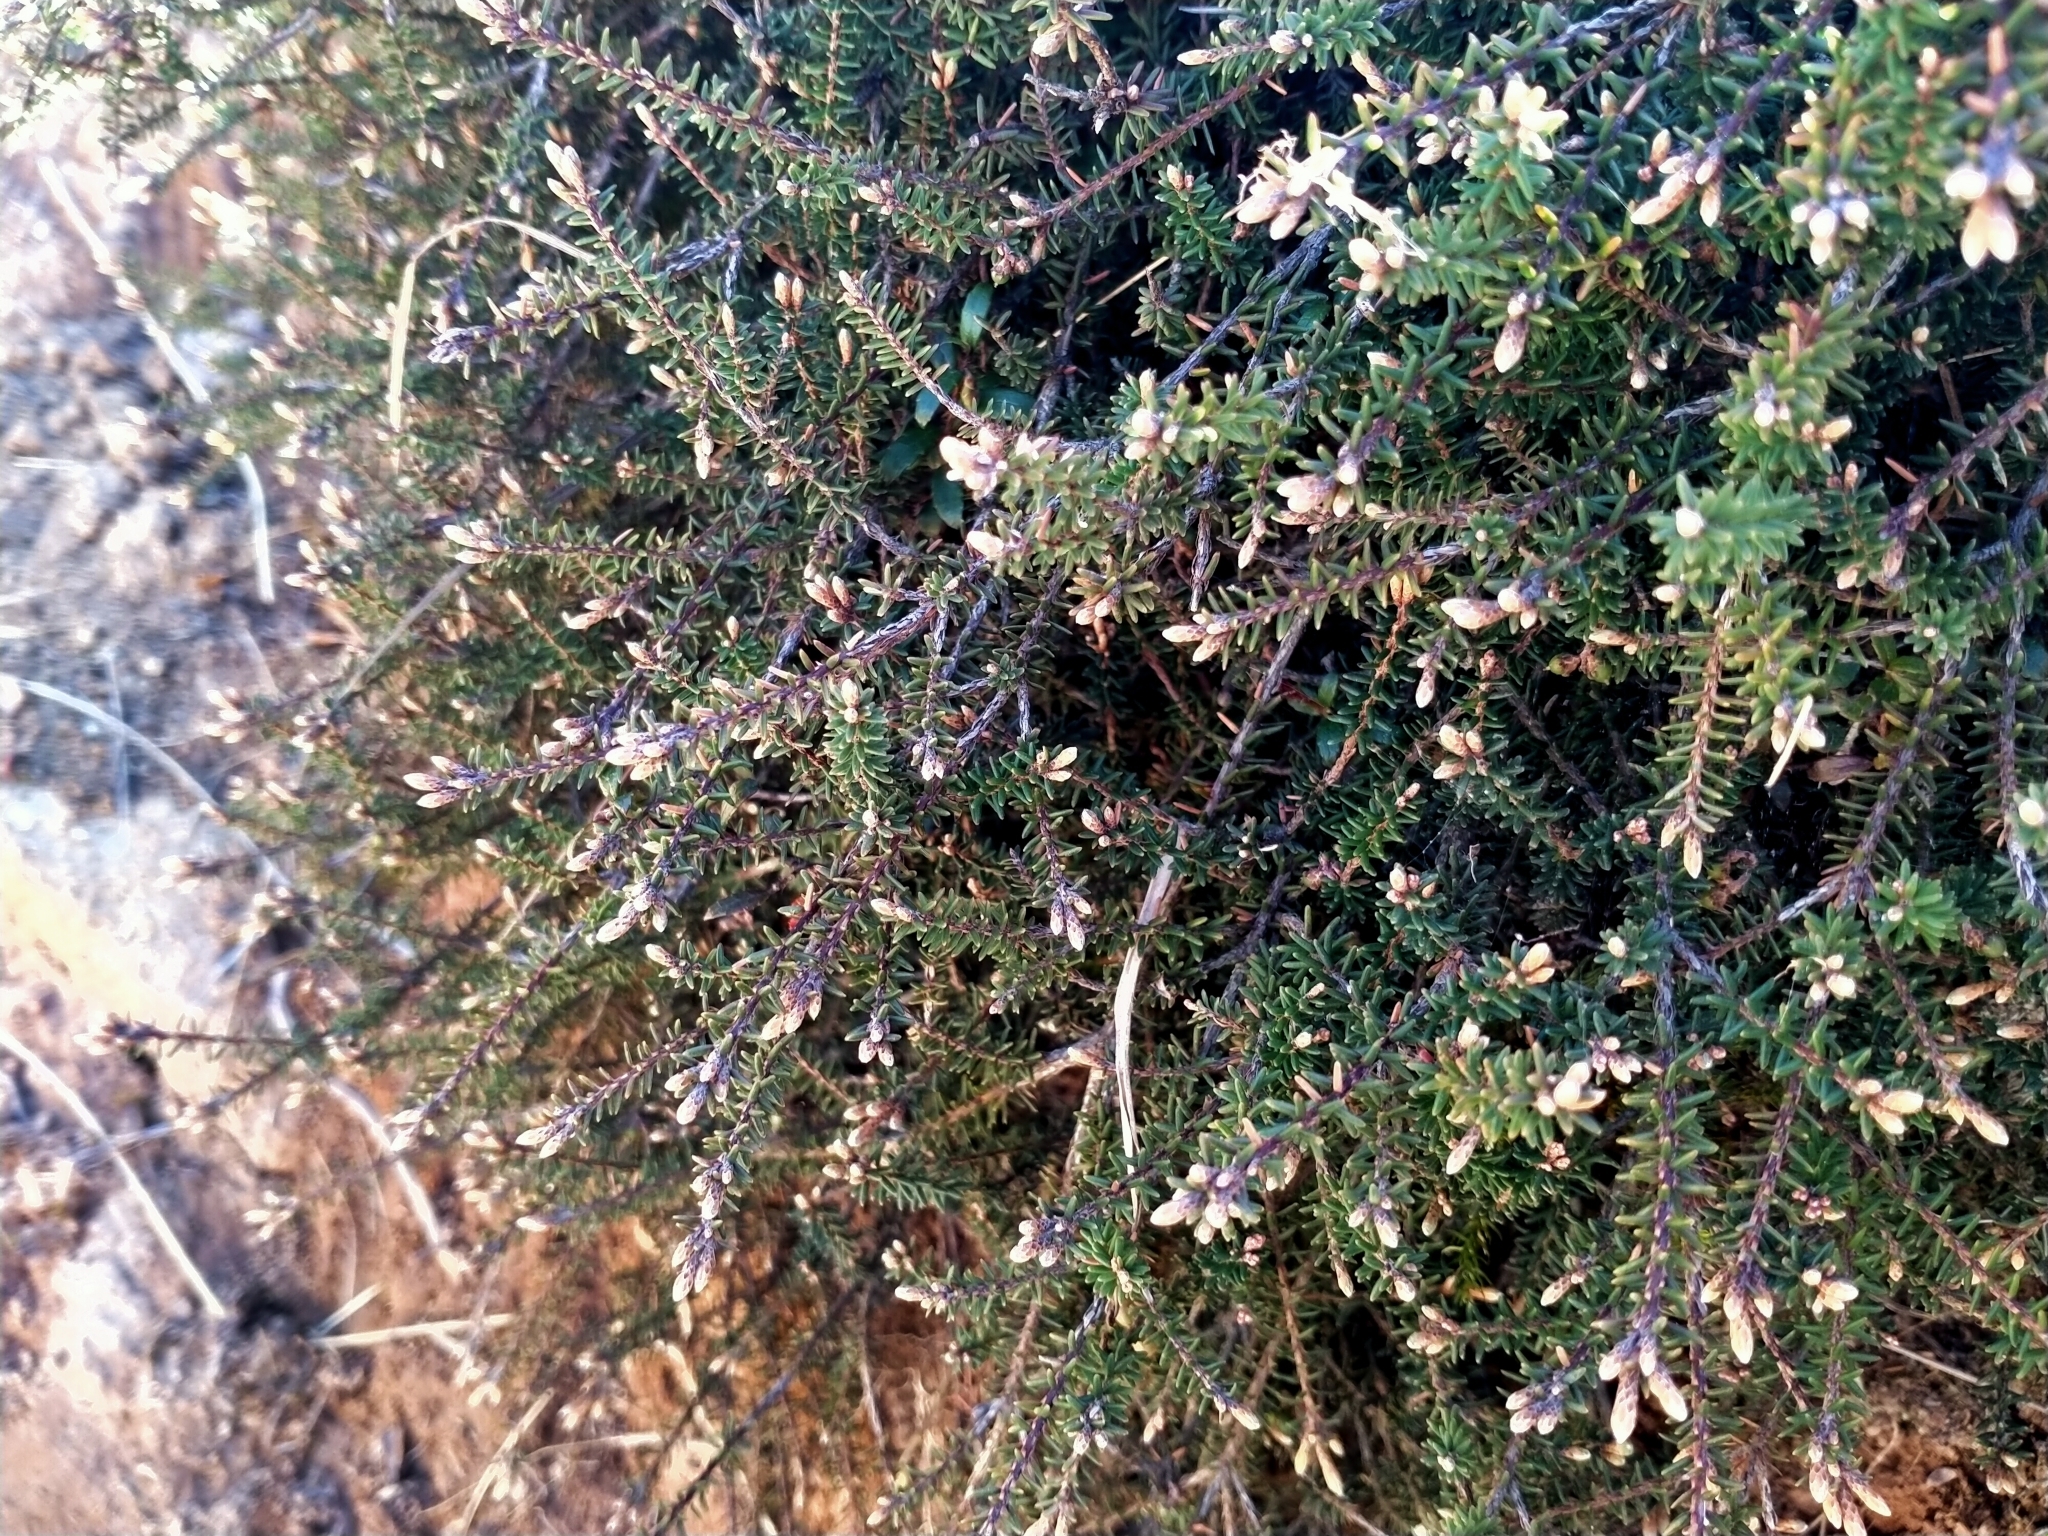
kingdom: Plantae
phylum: Tracheophyta
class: Magnoliopsida
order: Ericales
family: Ericaceae
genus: Androstoma
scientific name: Androstoma empetrifolia
